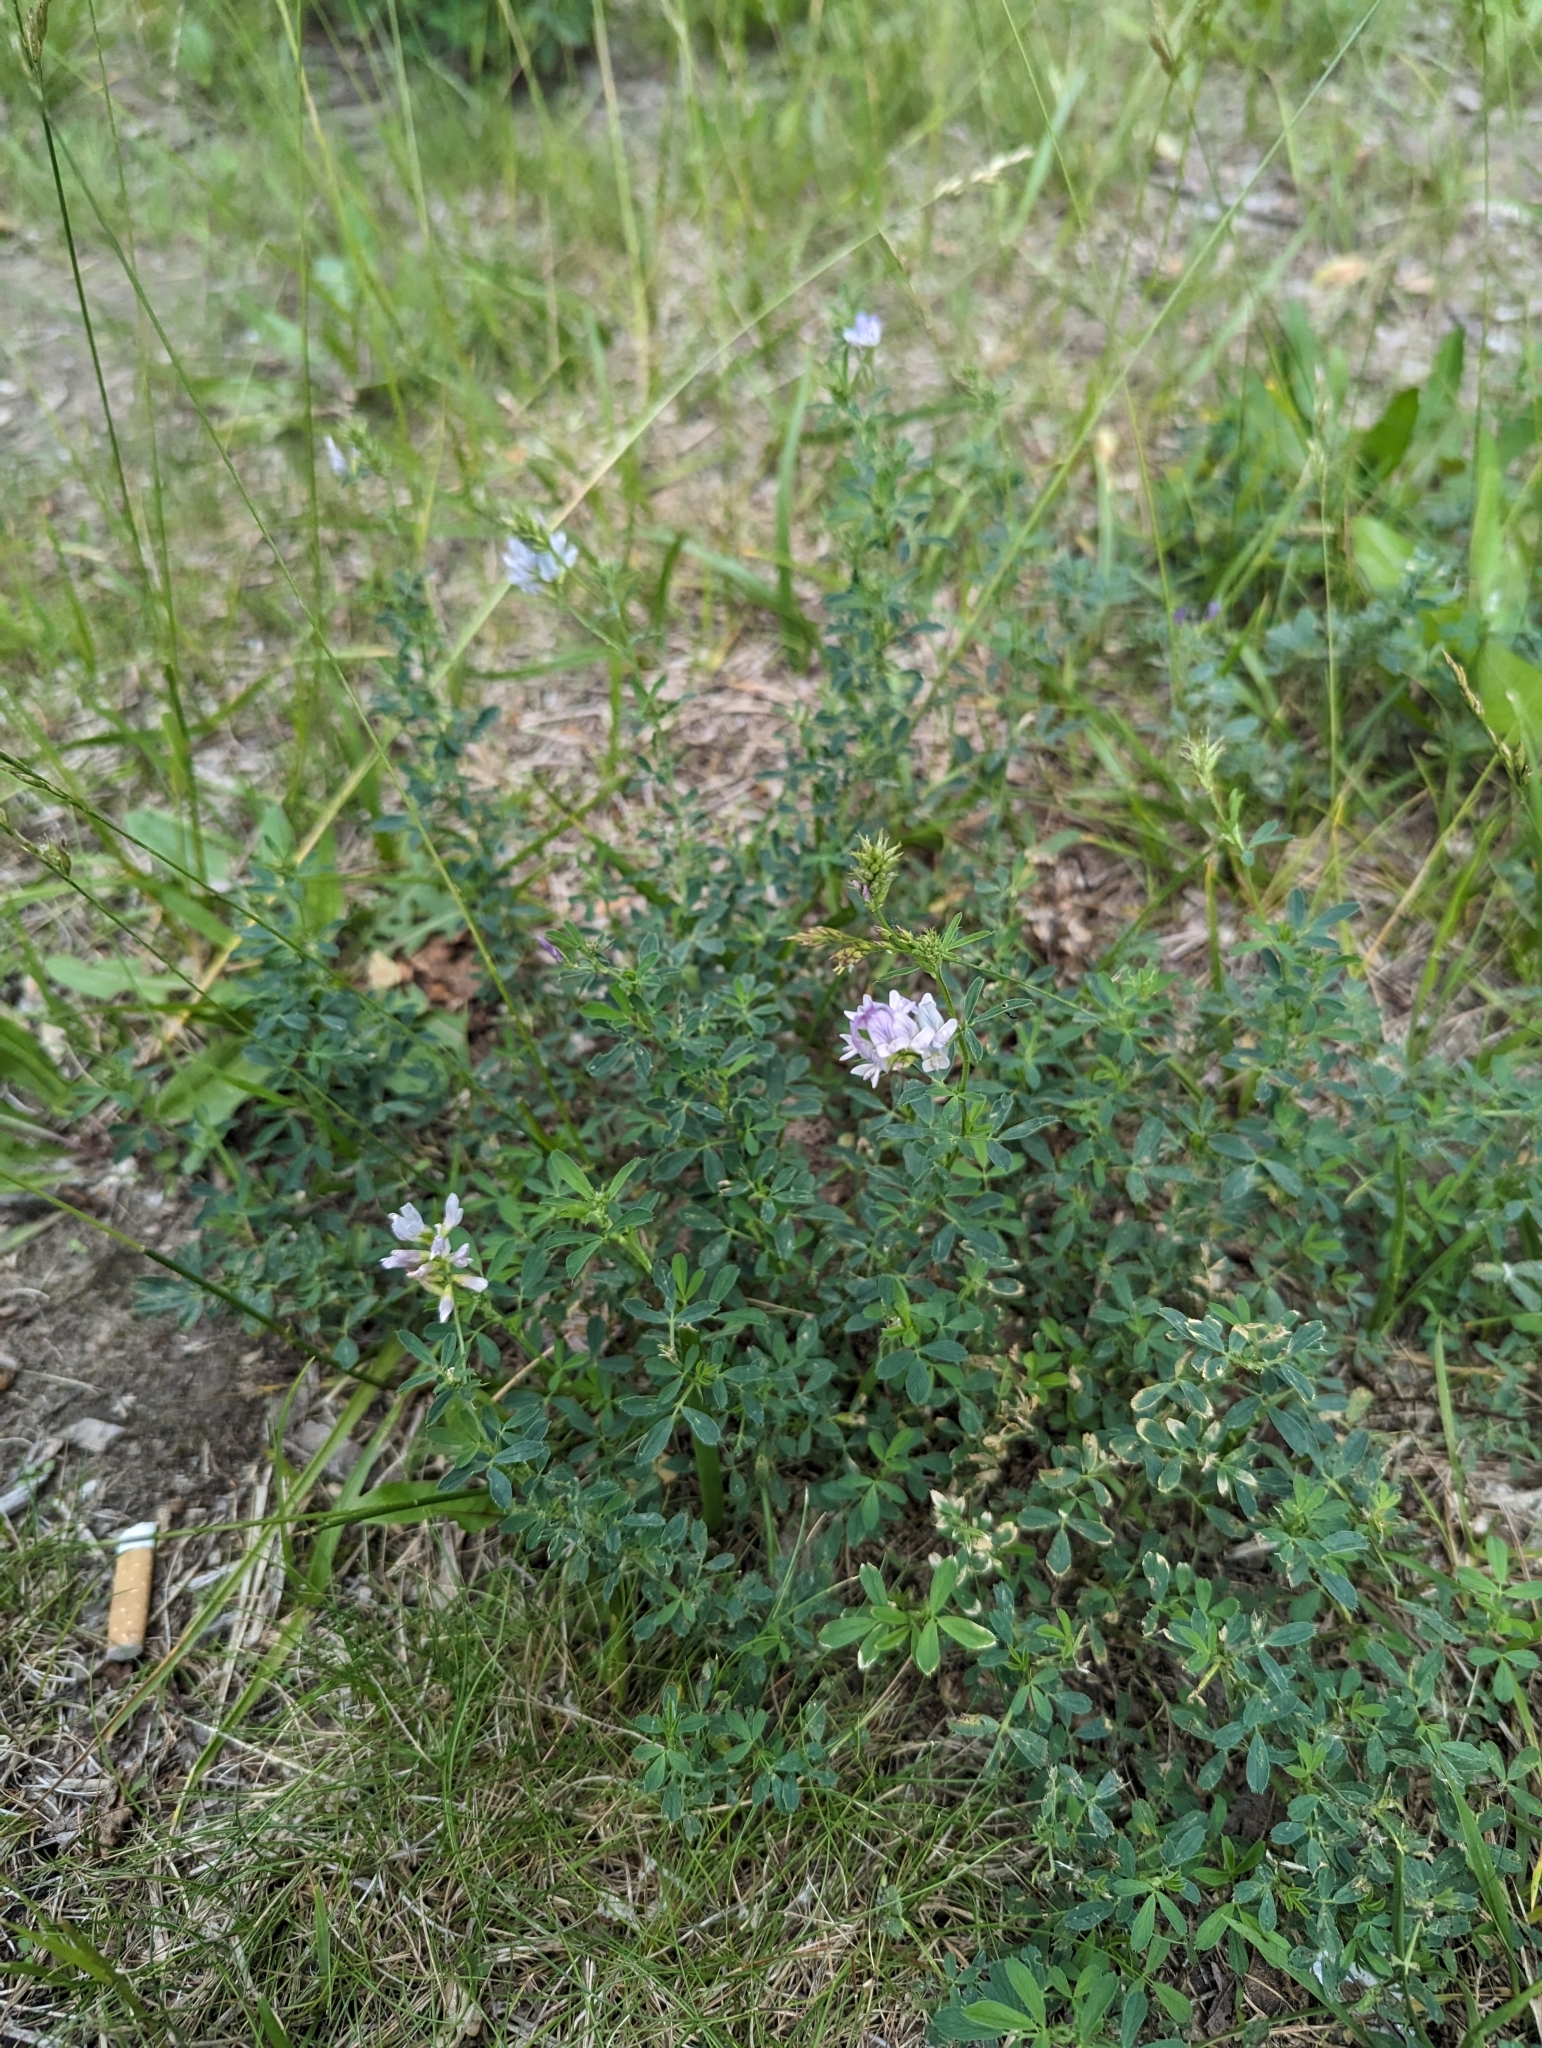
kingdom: Plantae
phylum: Tracheophyta
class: Magnoliopsida
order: Fabales
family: Fabaceae
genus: Medicago
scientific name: Medicago sativa
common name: Alfalfa
